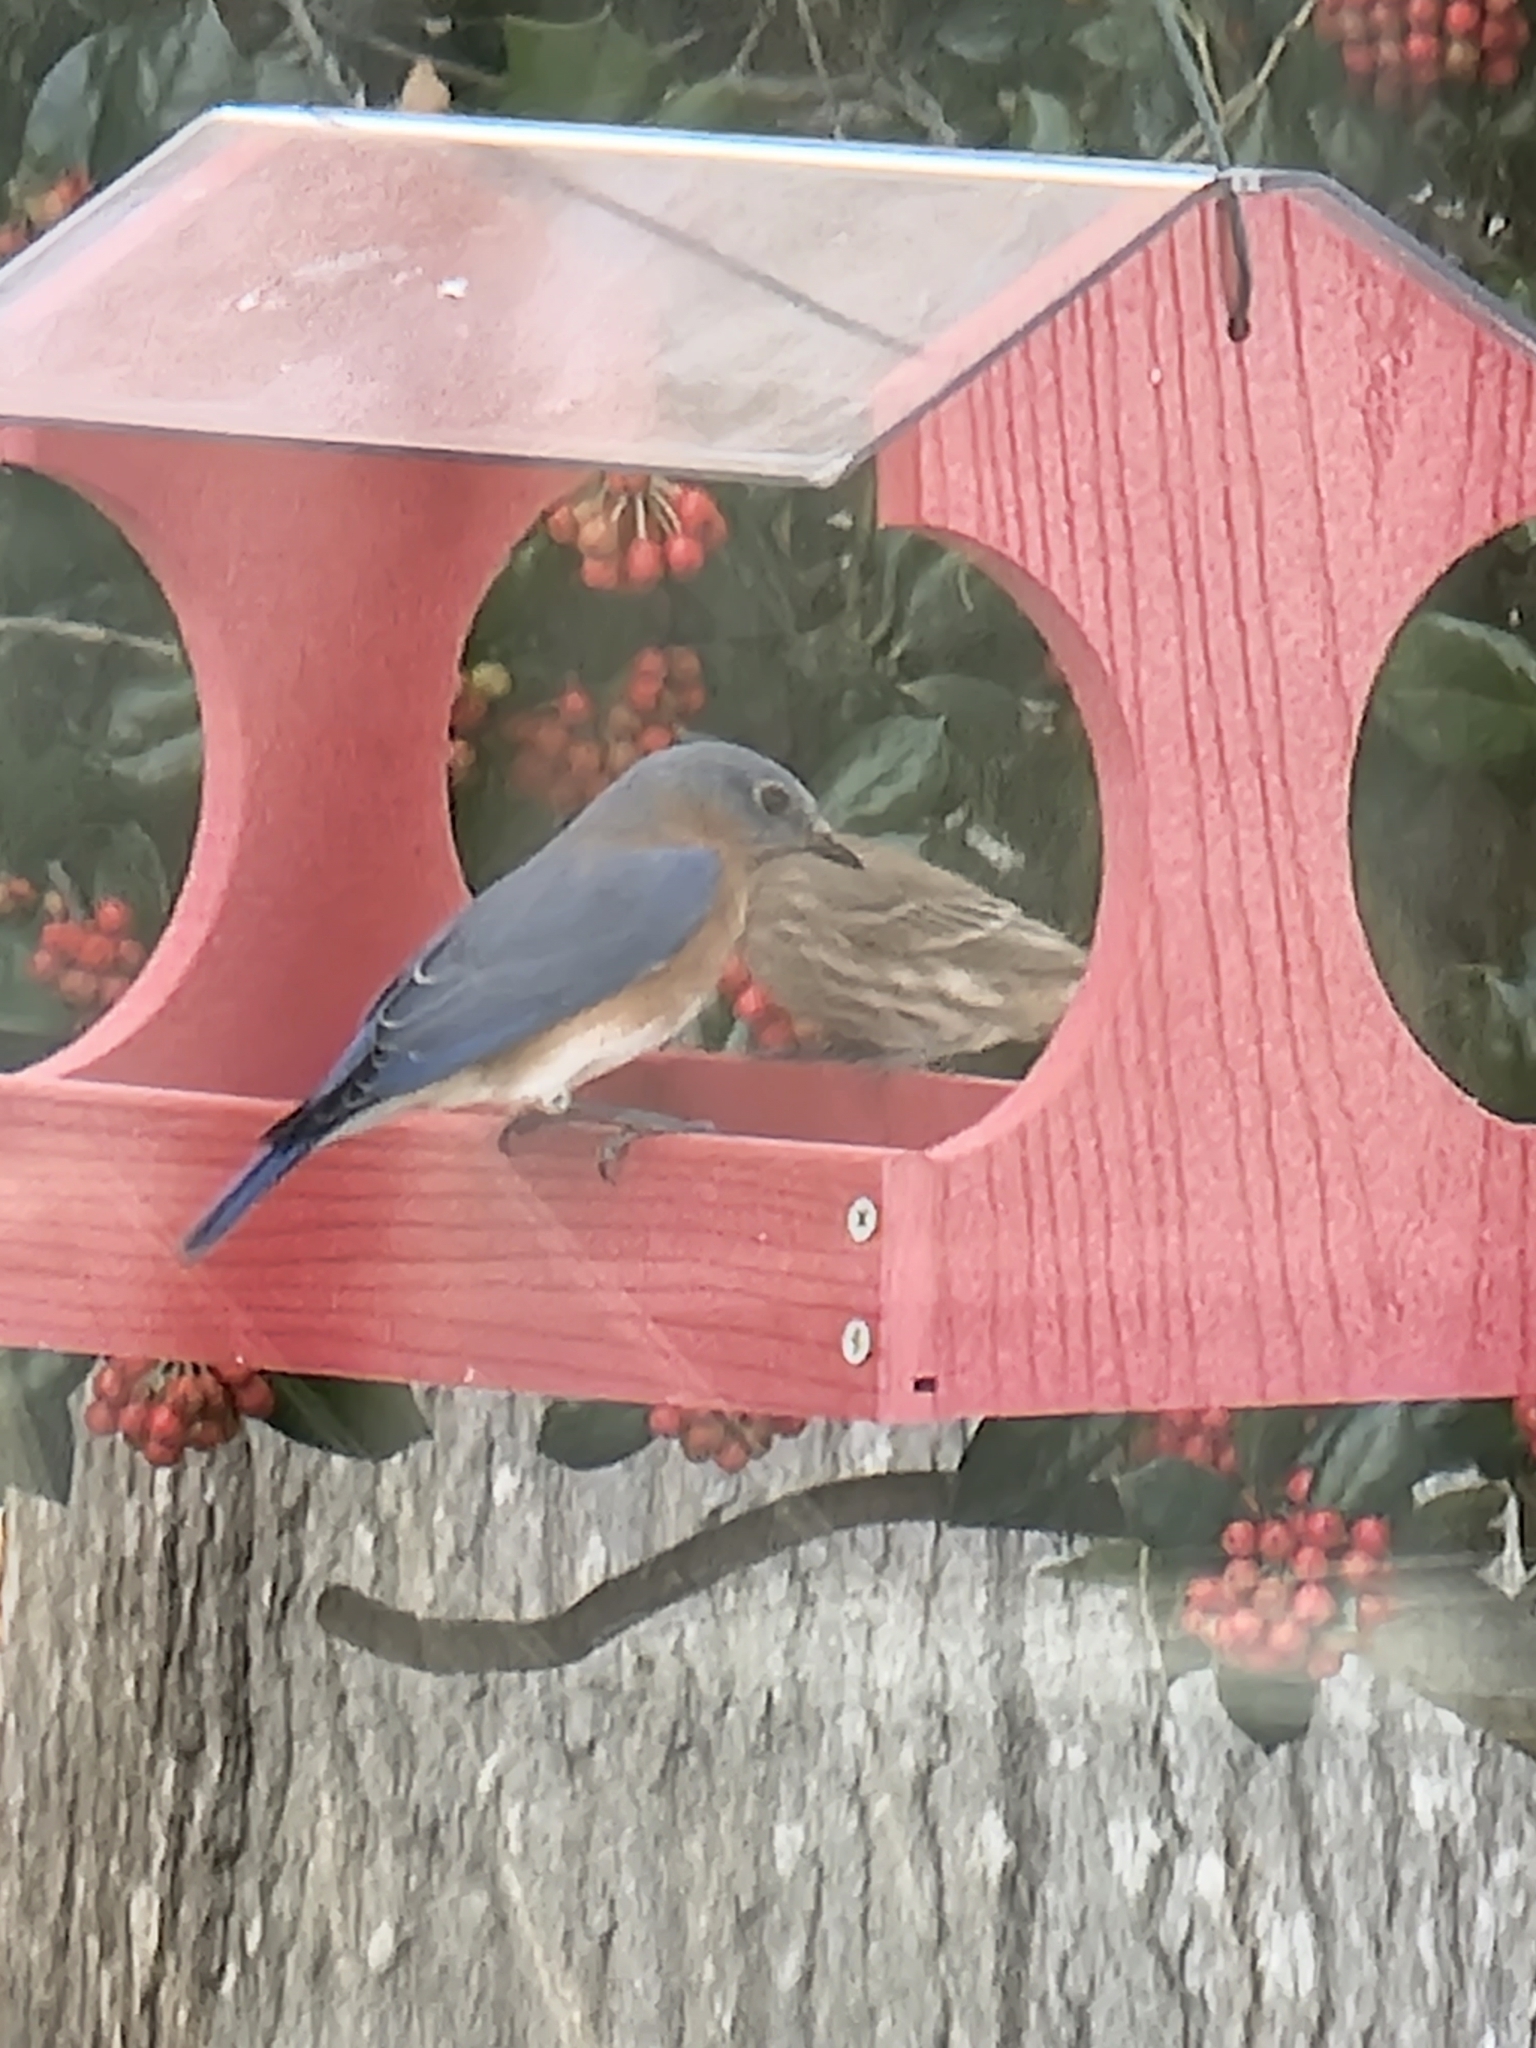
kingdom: Animalia
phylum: Chordata
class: Aves
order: Passeriformes
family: Turdidae
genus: Sialia
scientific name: Sialia sialis
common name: Eastern bluebird
